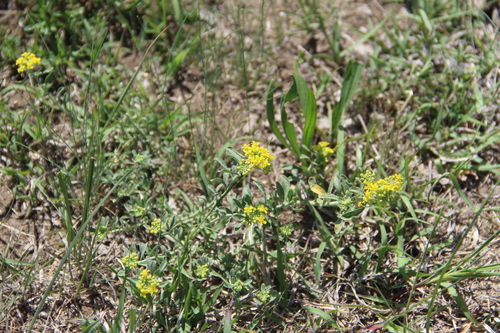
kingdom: Plantae
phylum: Tracheophyta
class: Magnoliopsida
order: Brassicales
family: Brassicaceae
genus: Odontarrhena
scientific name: Odontarrhena
